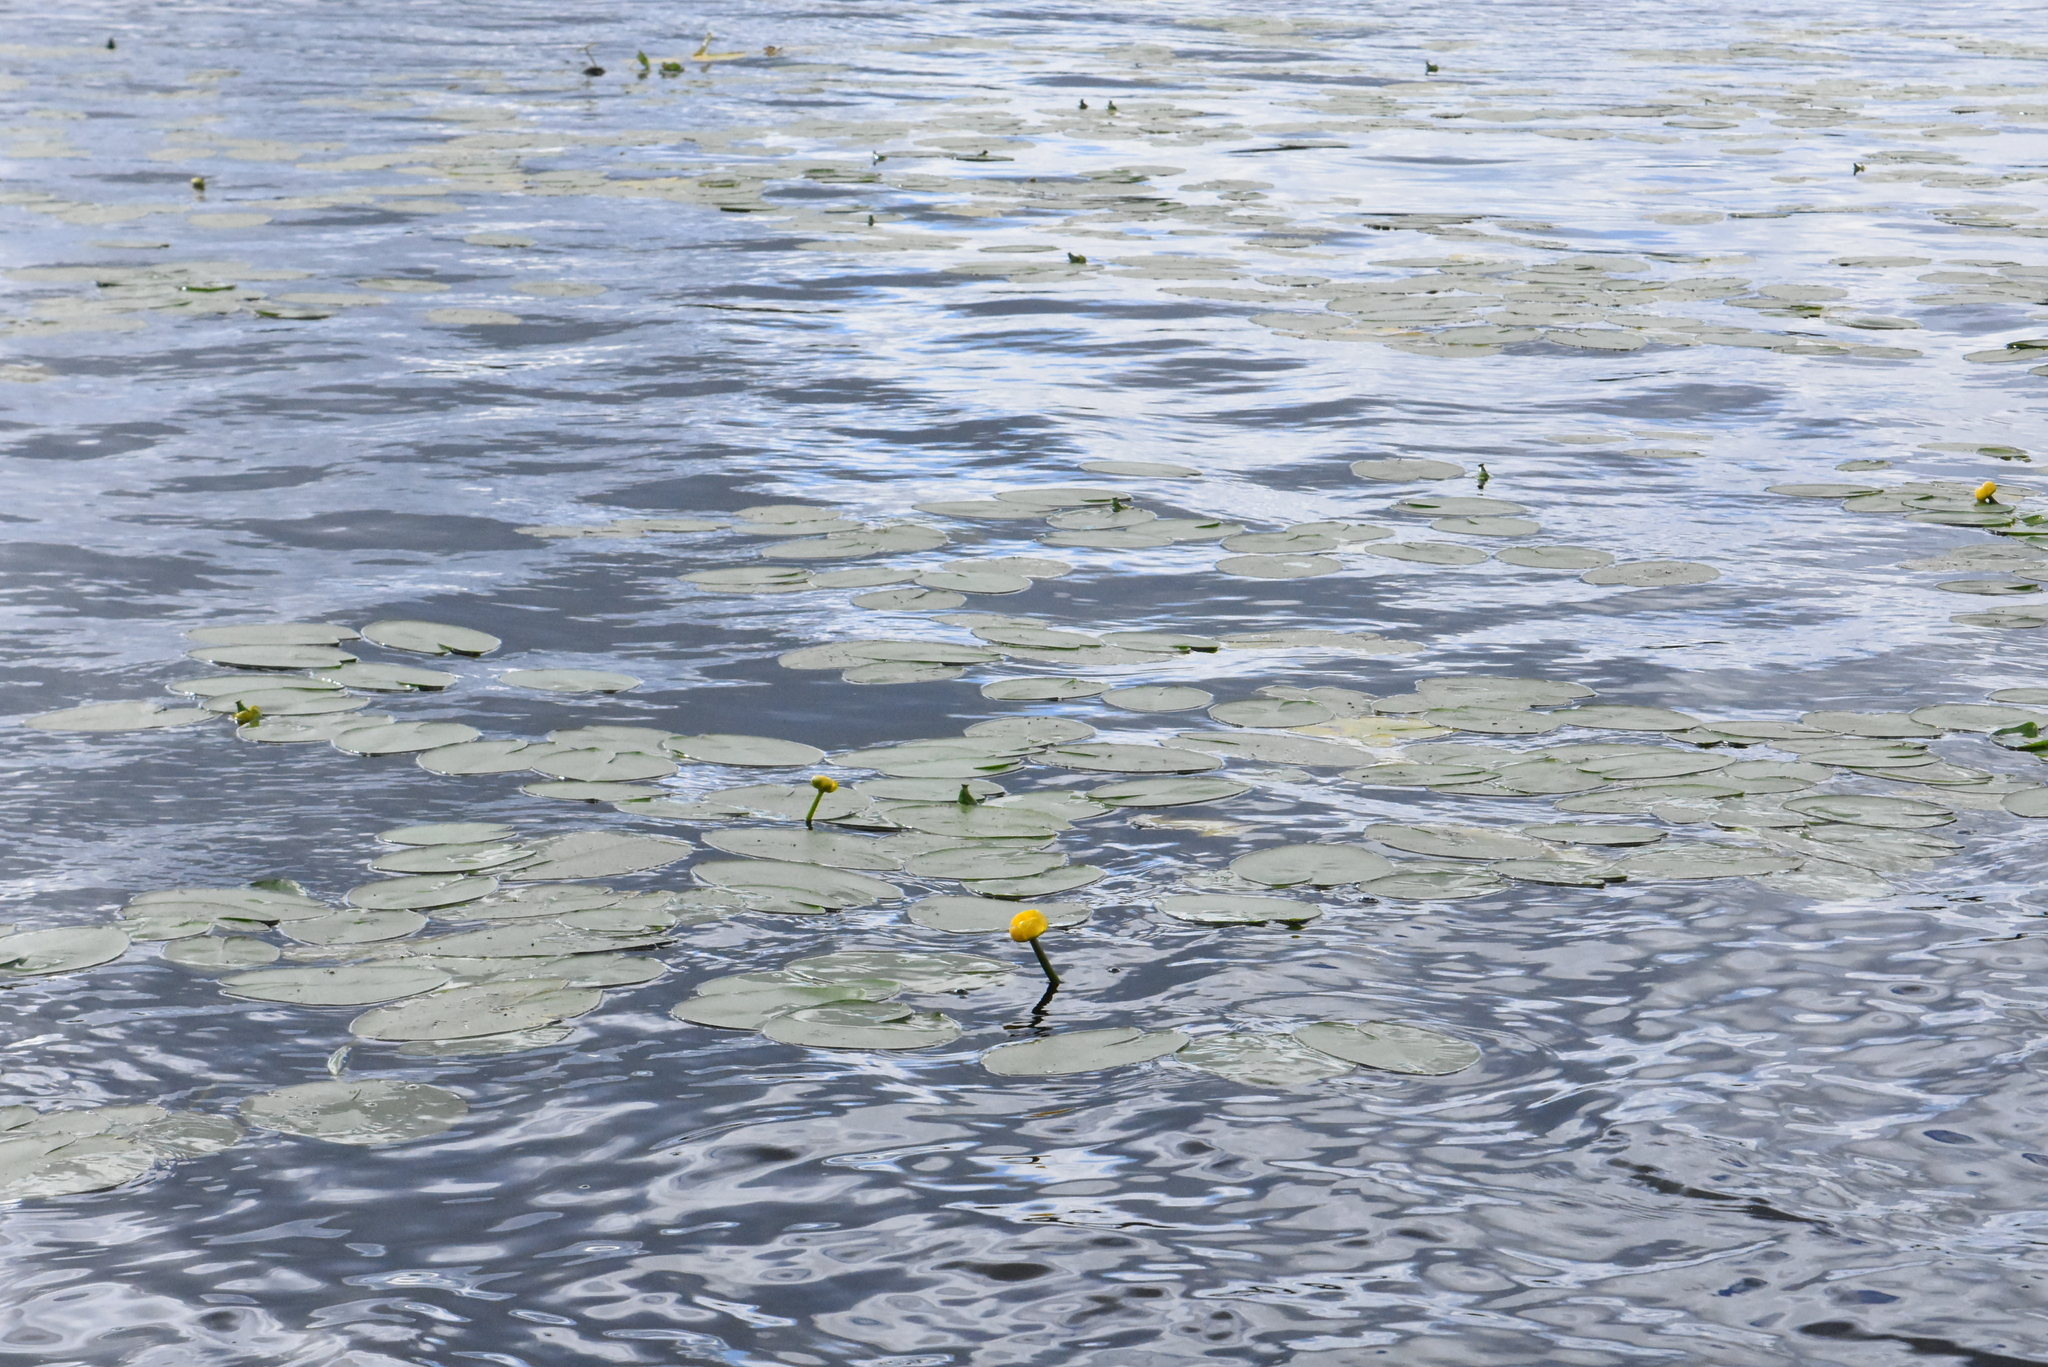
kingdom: Plantae
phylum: Tracheophyta
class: Magnoliopsida
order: Nymphaeales
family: Nymphaeaceae
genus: Nuphar
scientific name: Nuphar lutea
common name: Yellow water-lily
